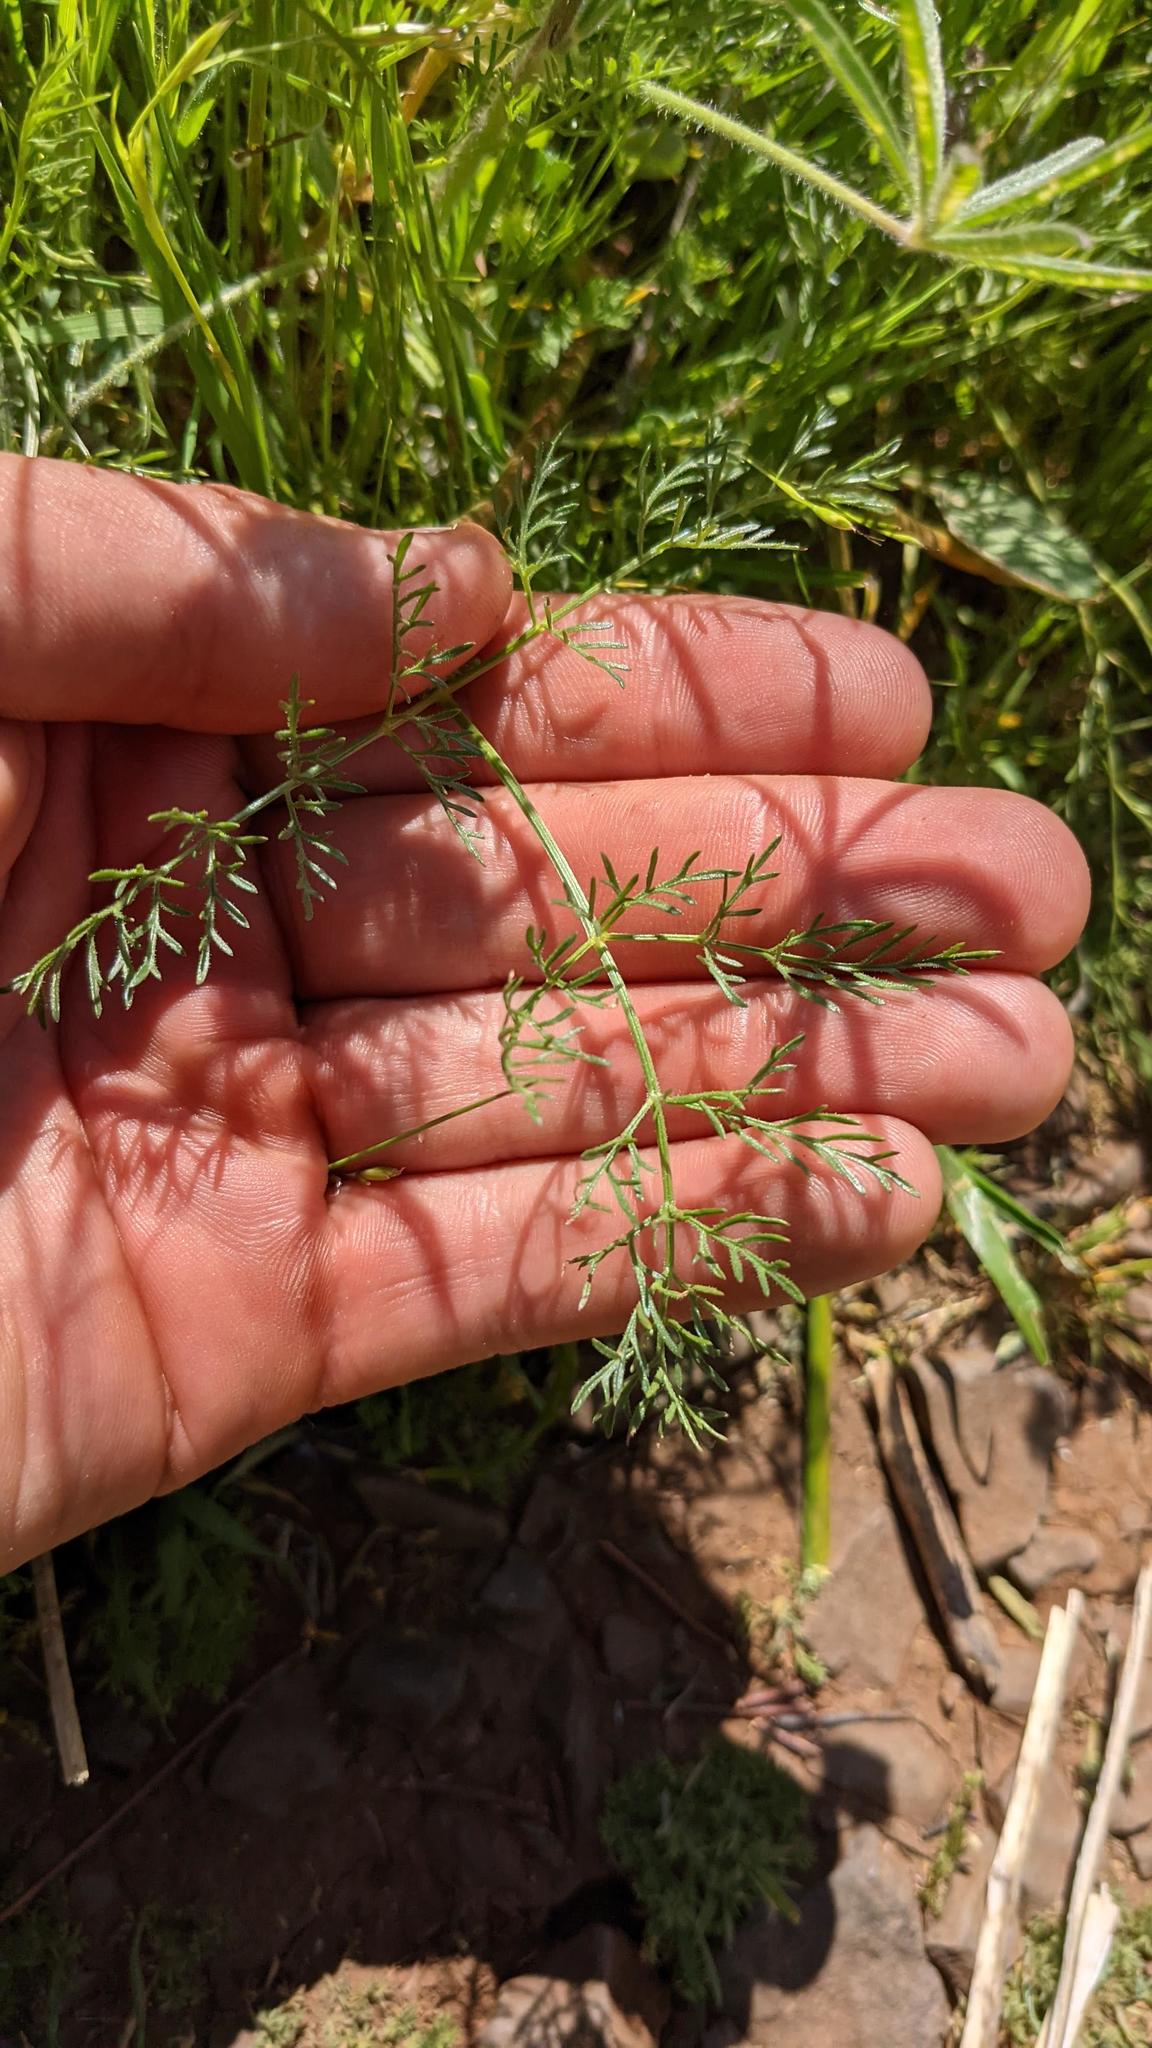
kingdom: Plantae
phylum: Tracheophyta
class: Magnoliopsida
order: Apiales
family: Apiaceae
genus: Lomatium
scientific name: Lomatium utriculatum
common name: Fine-leaf desert-parsley
